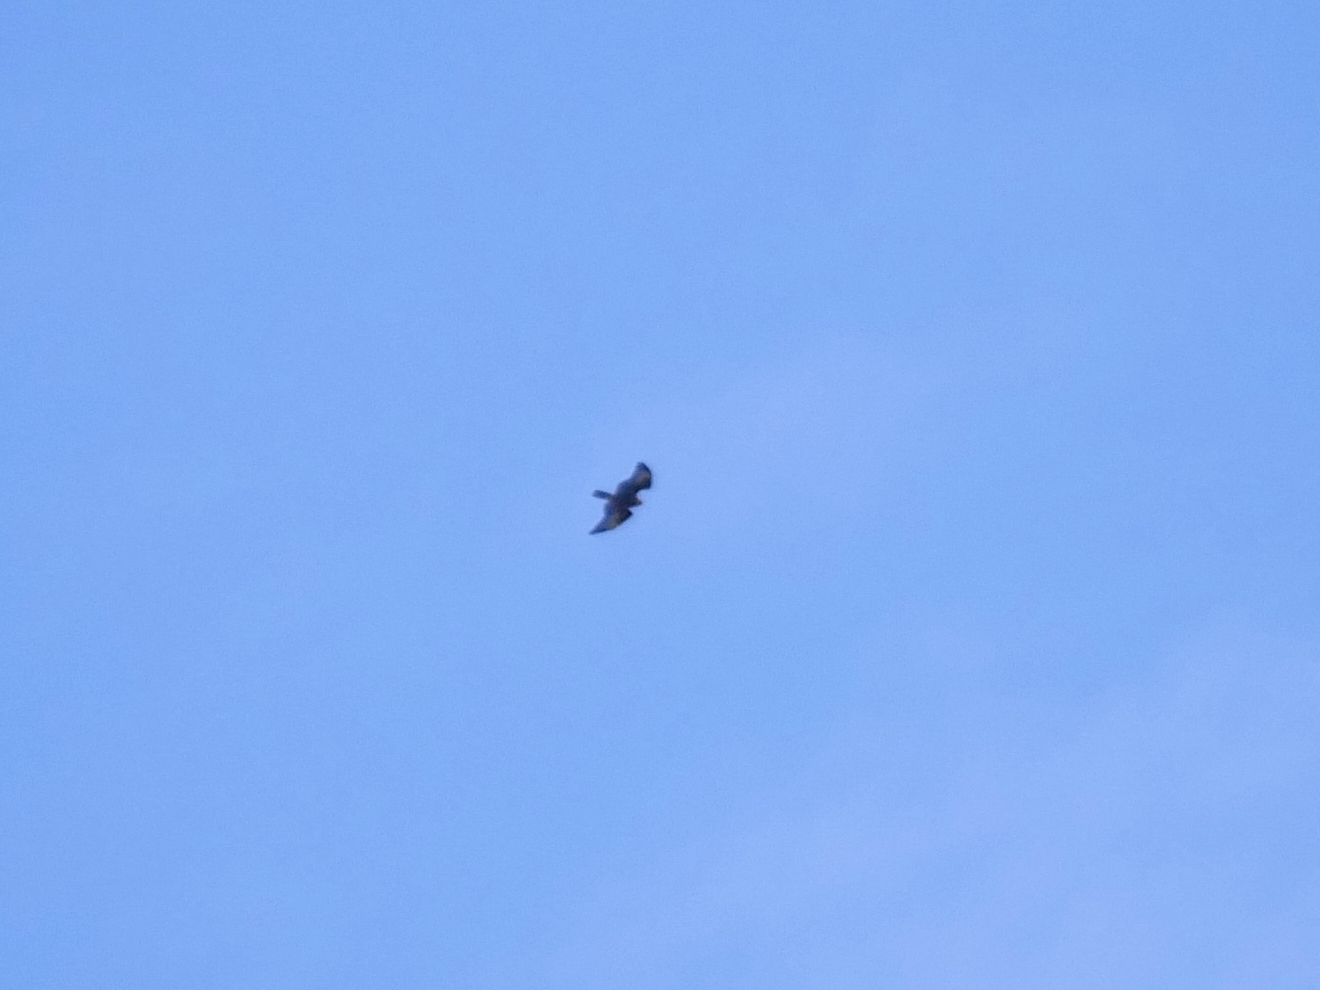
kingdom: Animalia
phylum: Chordata
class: Aves
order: Accipitriformes
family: Accipitridae
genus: Buteo
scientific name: Buteo buteo
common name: Common buzzard
